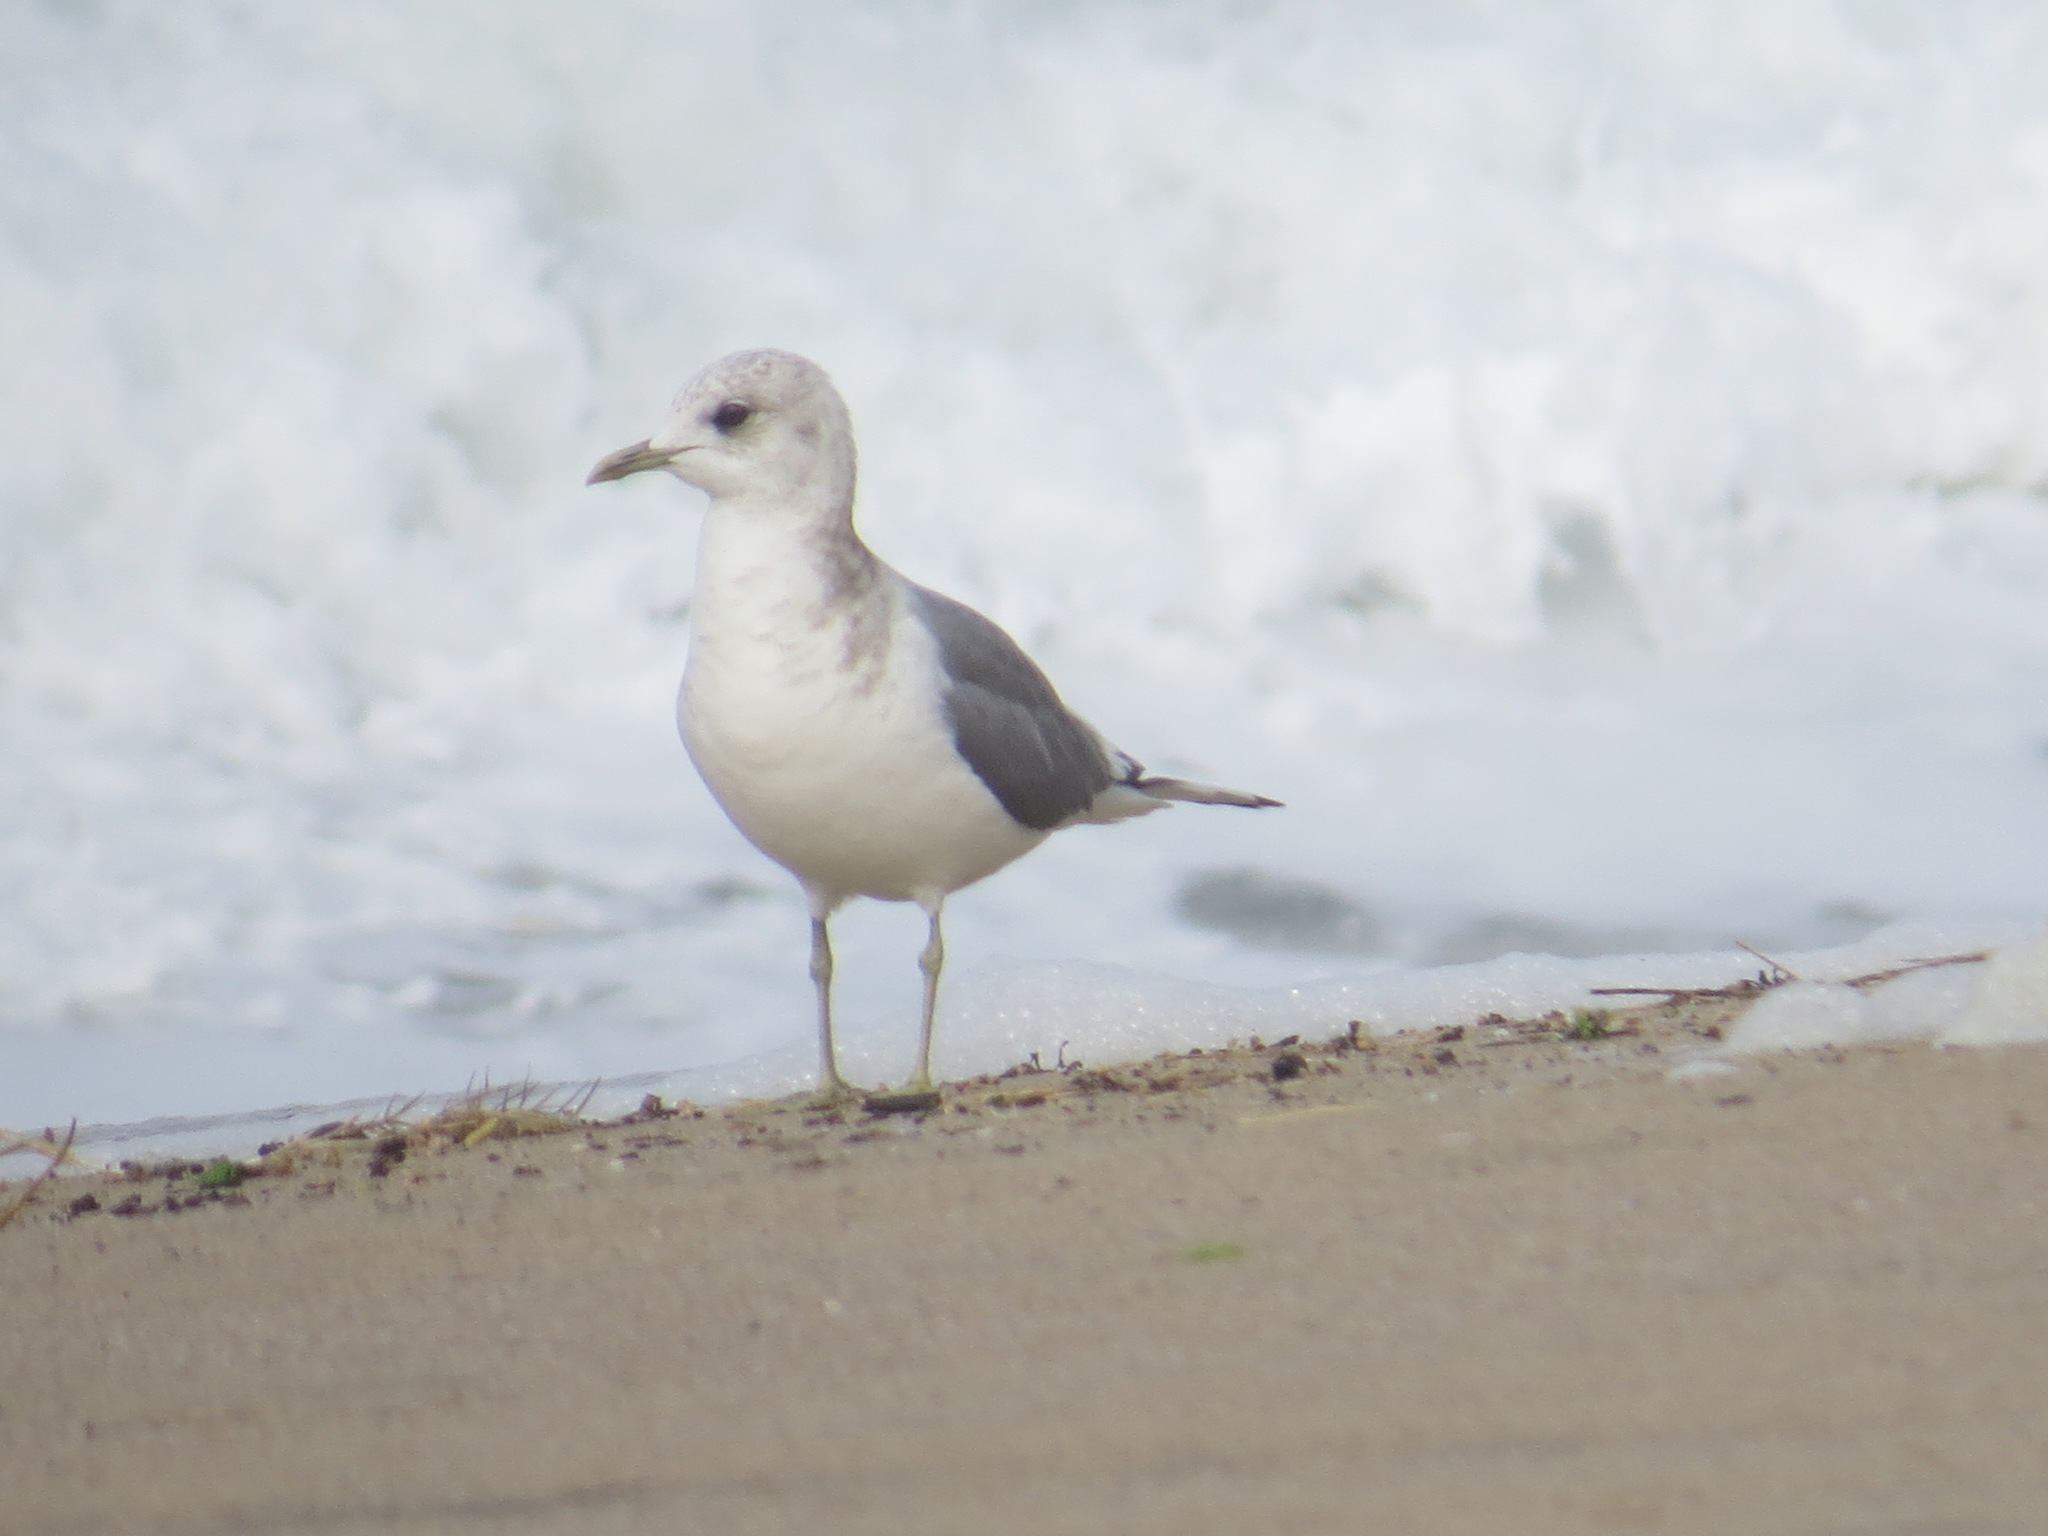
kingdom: Animalia
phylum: Chordata
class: Aves
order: Charadriiformes
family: Laridae
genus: Larus
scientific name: Larus brachyrhynchus
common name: Short-billed gull
